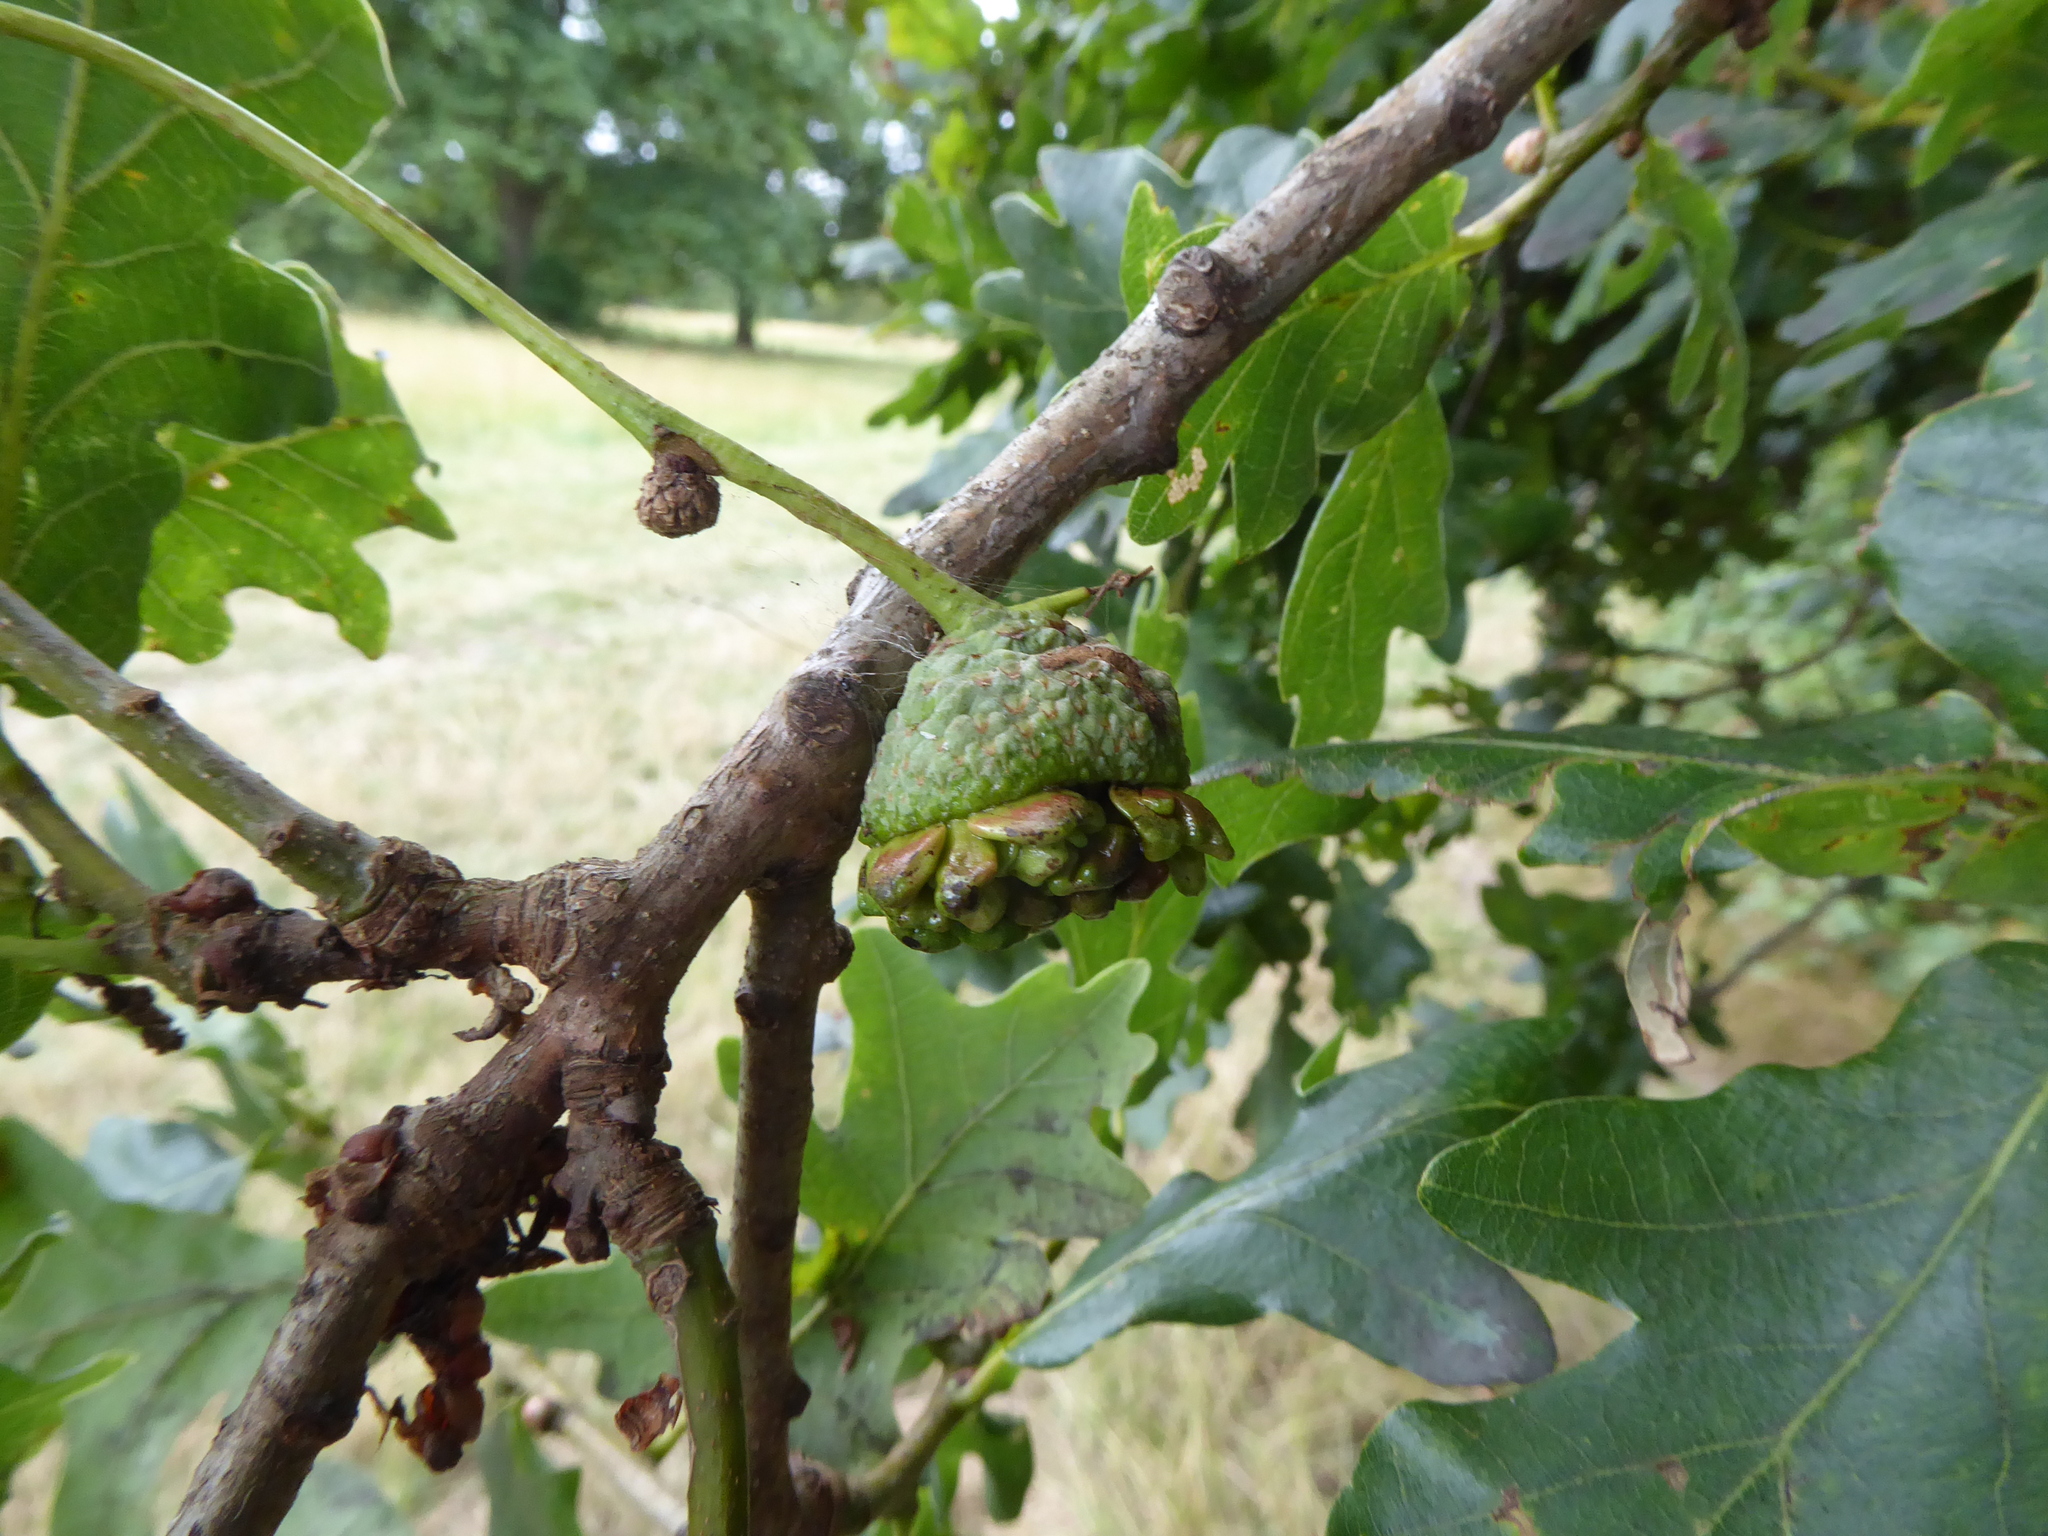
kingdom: Animalia
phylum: Arthropoda
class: Insecta
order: Hymenoptera
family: Cynipidae
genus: Andricus
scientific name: Andricus quercuscalicis
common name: Knopper gall
